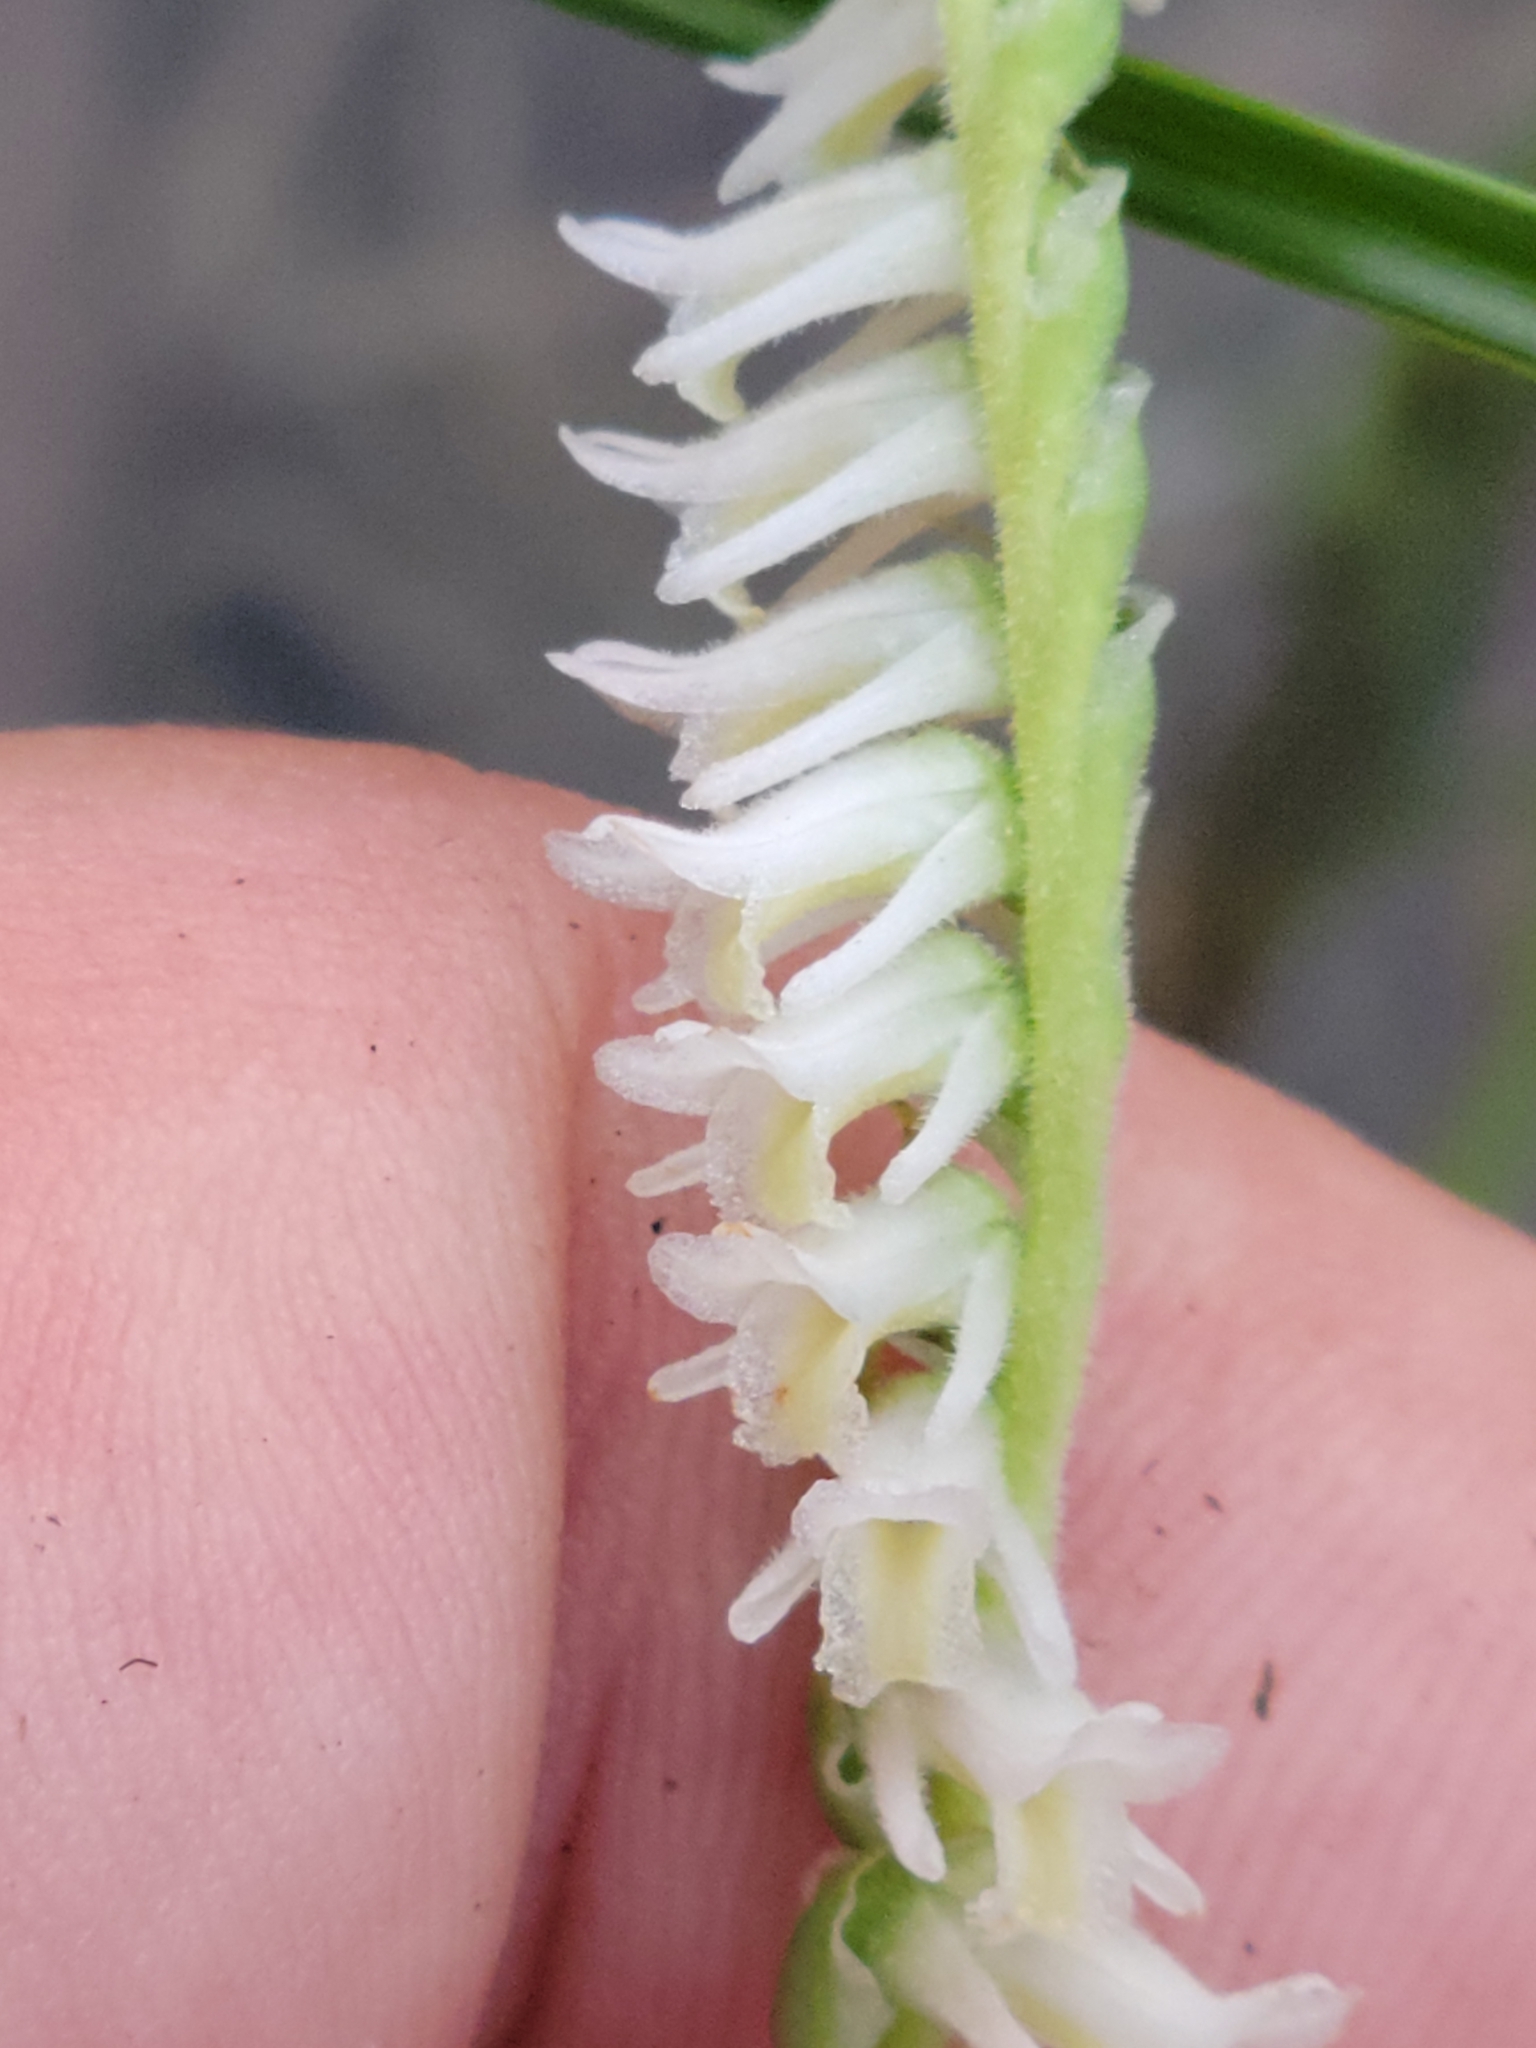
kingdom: Plantae
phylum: Tracheophyta
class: Liliopsida
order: Asparagales
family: Orchidaceae
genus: Spiranthes
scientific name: Spiranthes vernalis
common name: Spring ladies'-tresses
